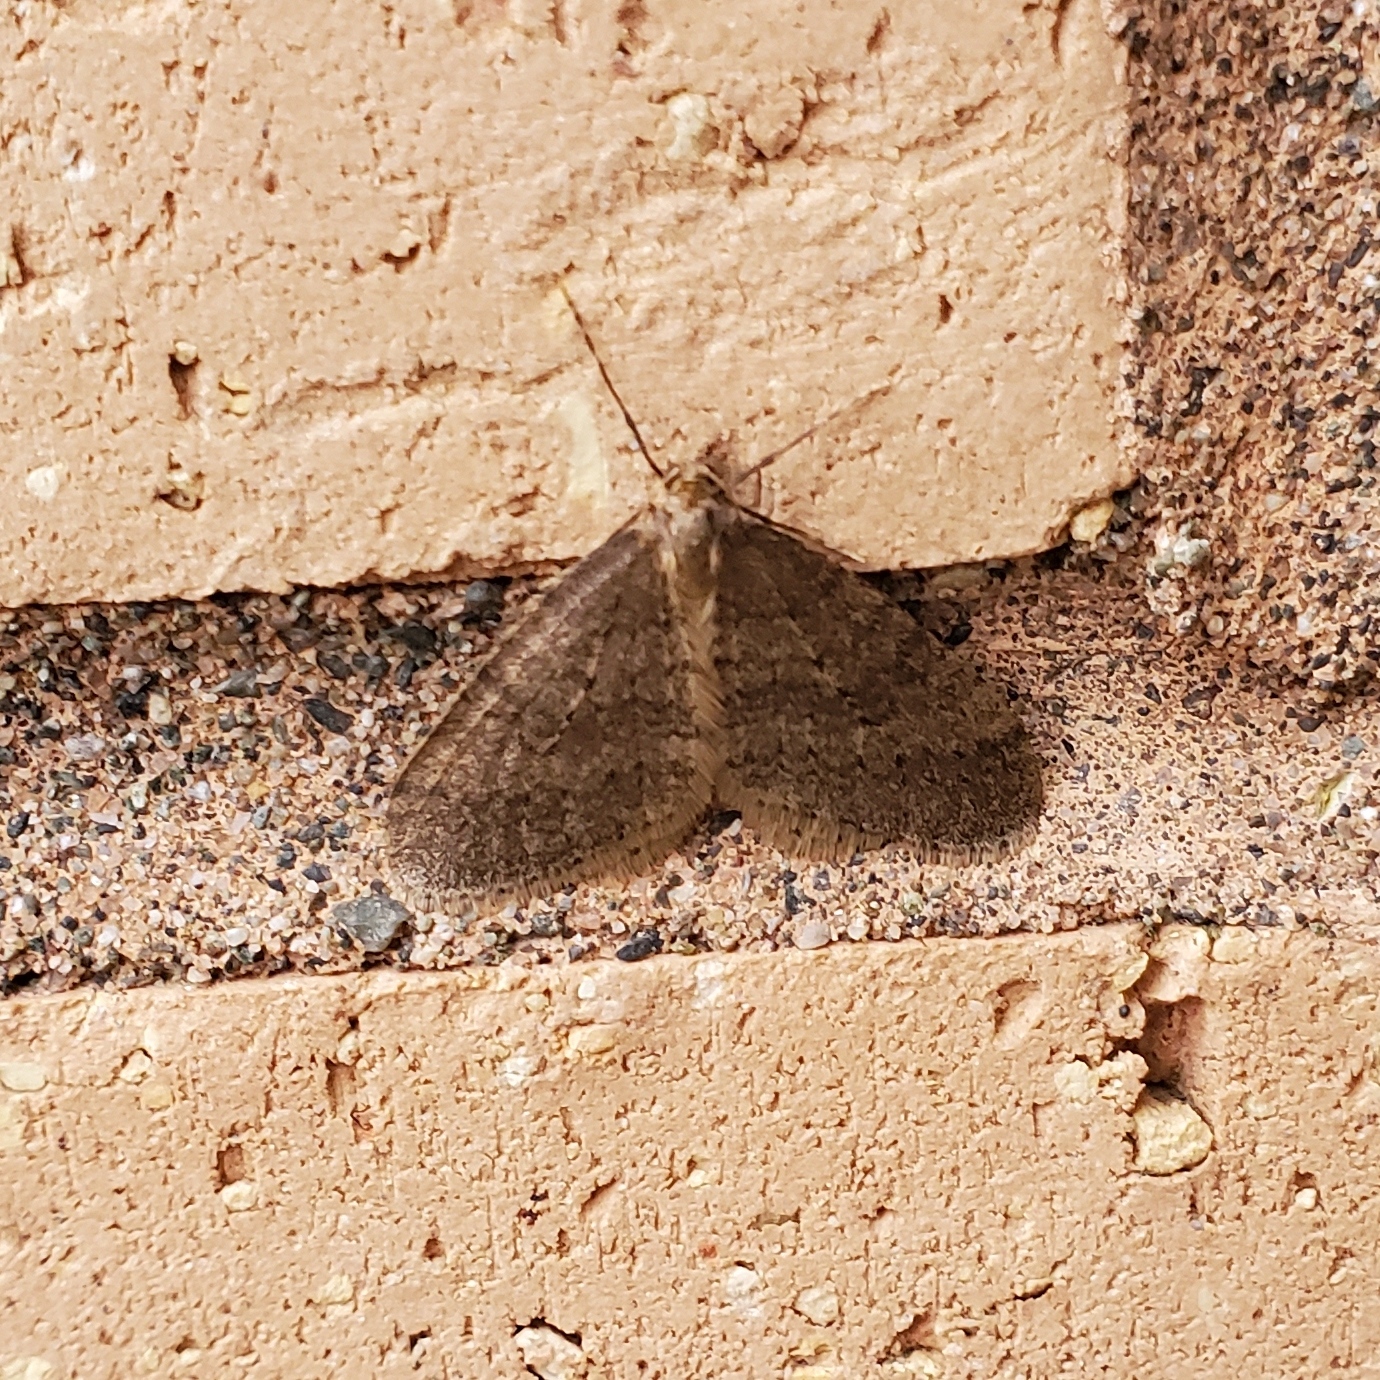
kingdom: Animalia
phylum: Arthropoda
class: Insecta
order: Lepidoptera
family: Geometridae
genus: Operophtera
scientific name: Operophtera
